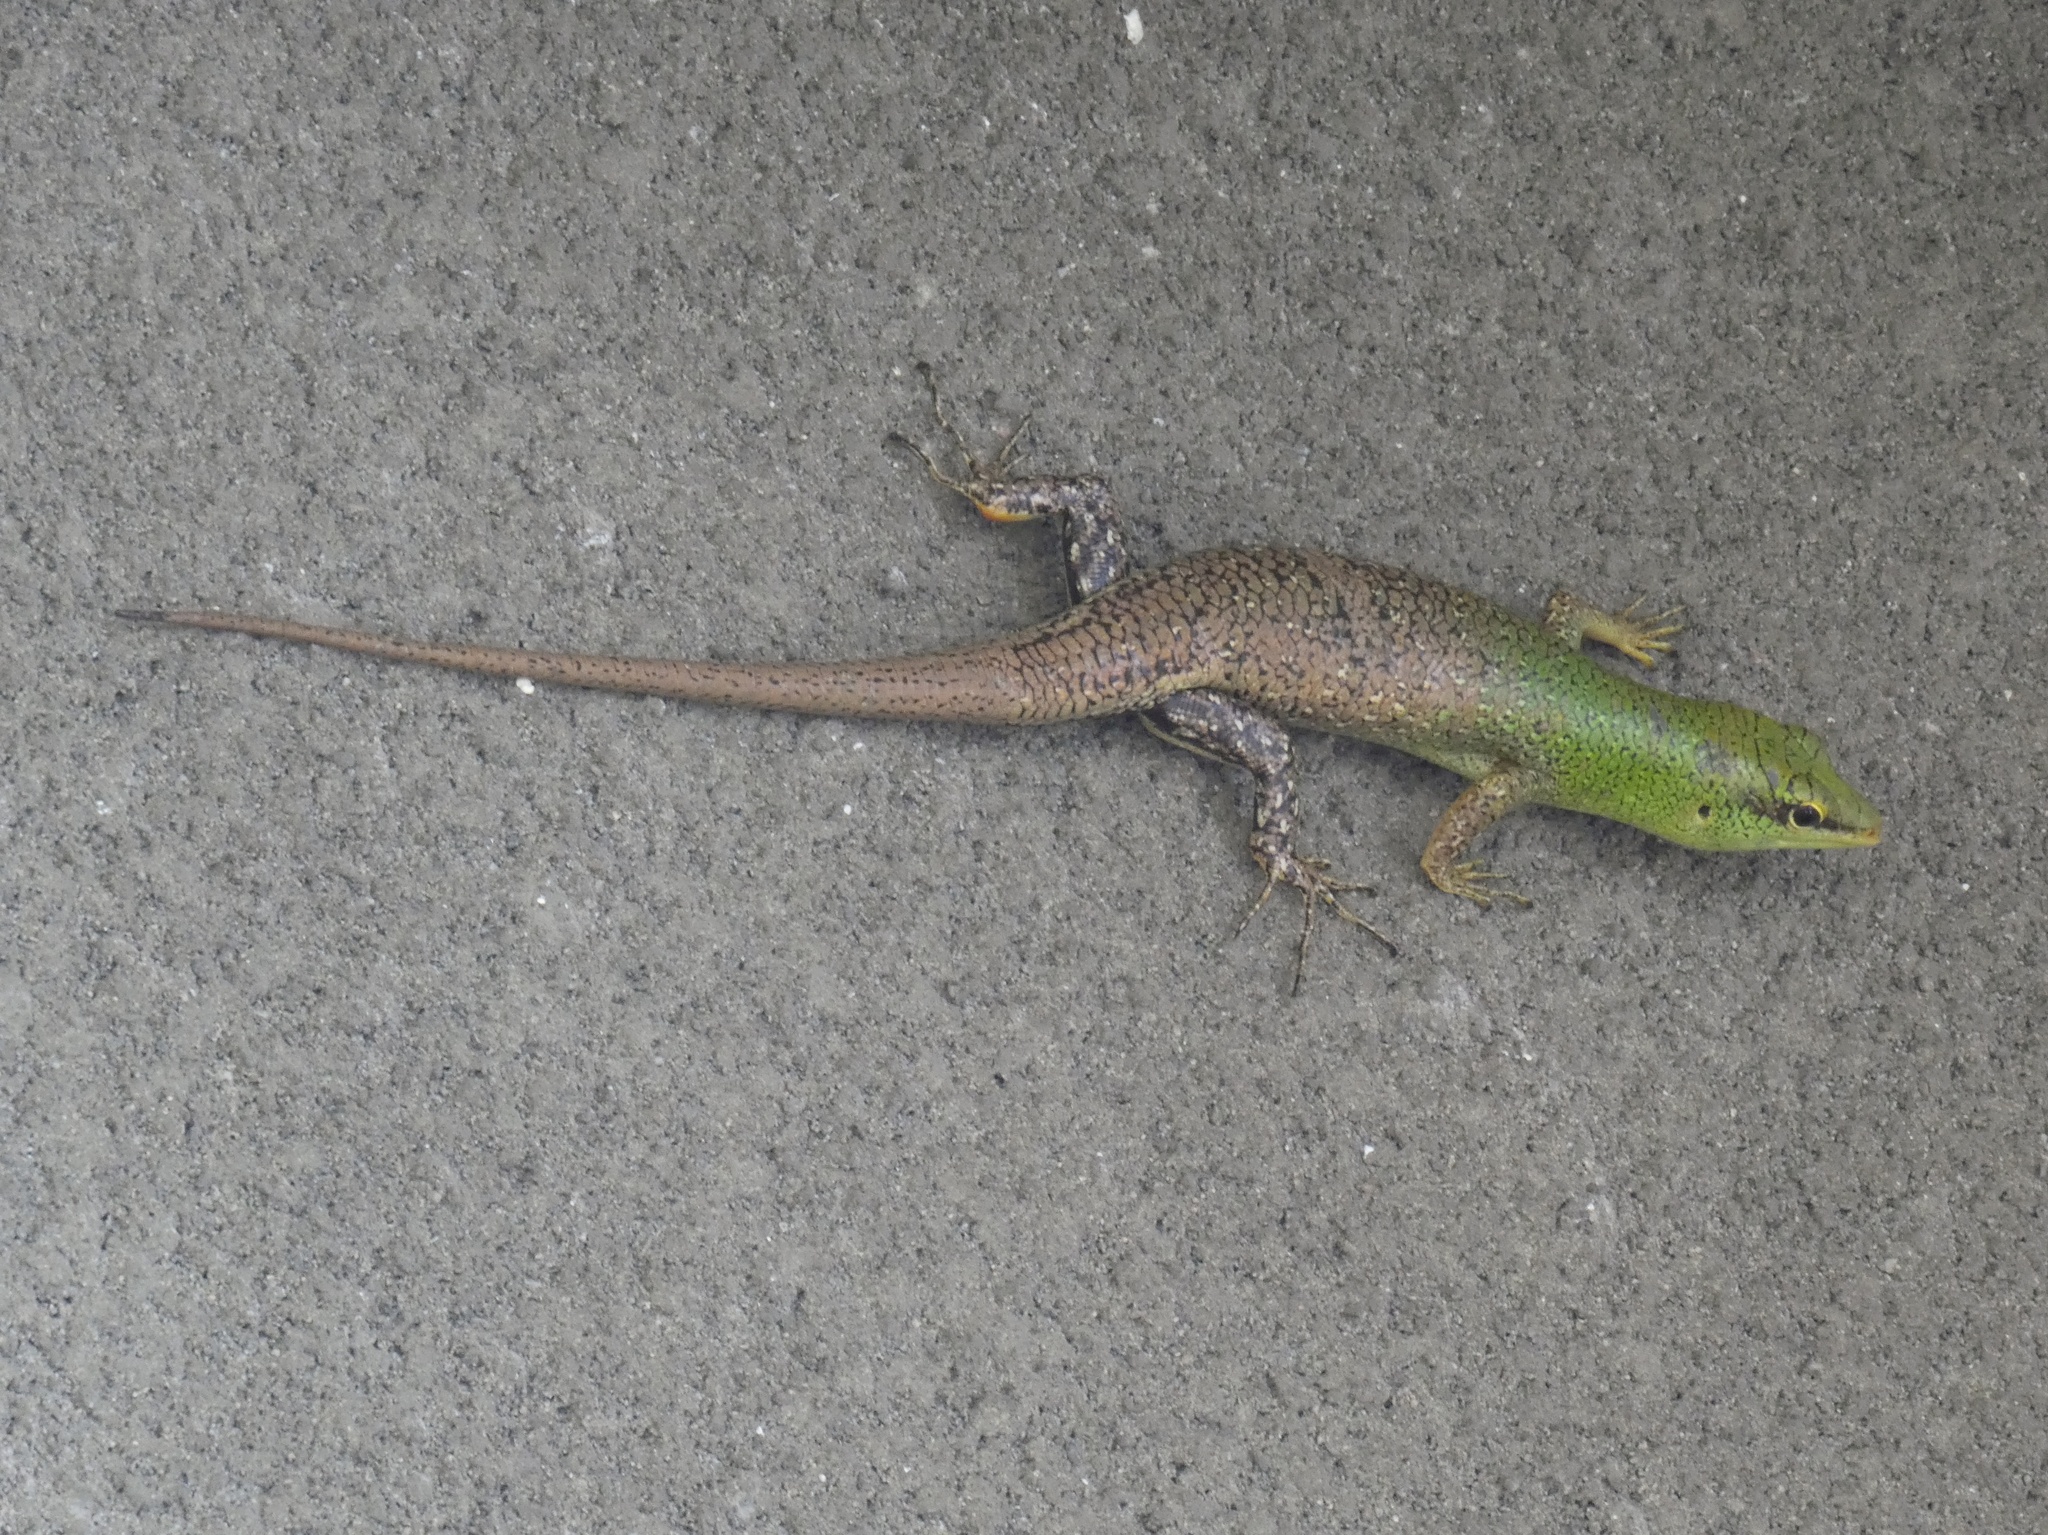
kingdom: Animalia
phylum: Chordata
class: Squamata
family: Scincidae
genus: Lamprolepis
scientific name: Lamprolepis smaragdina
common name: Emerald skink
